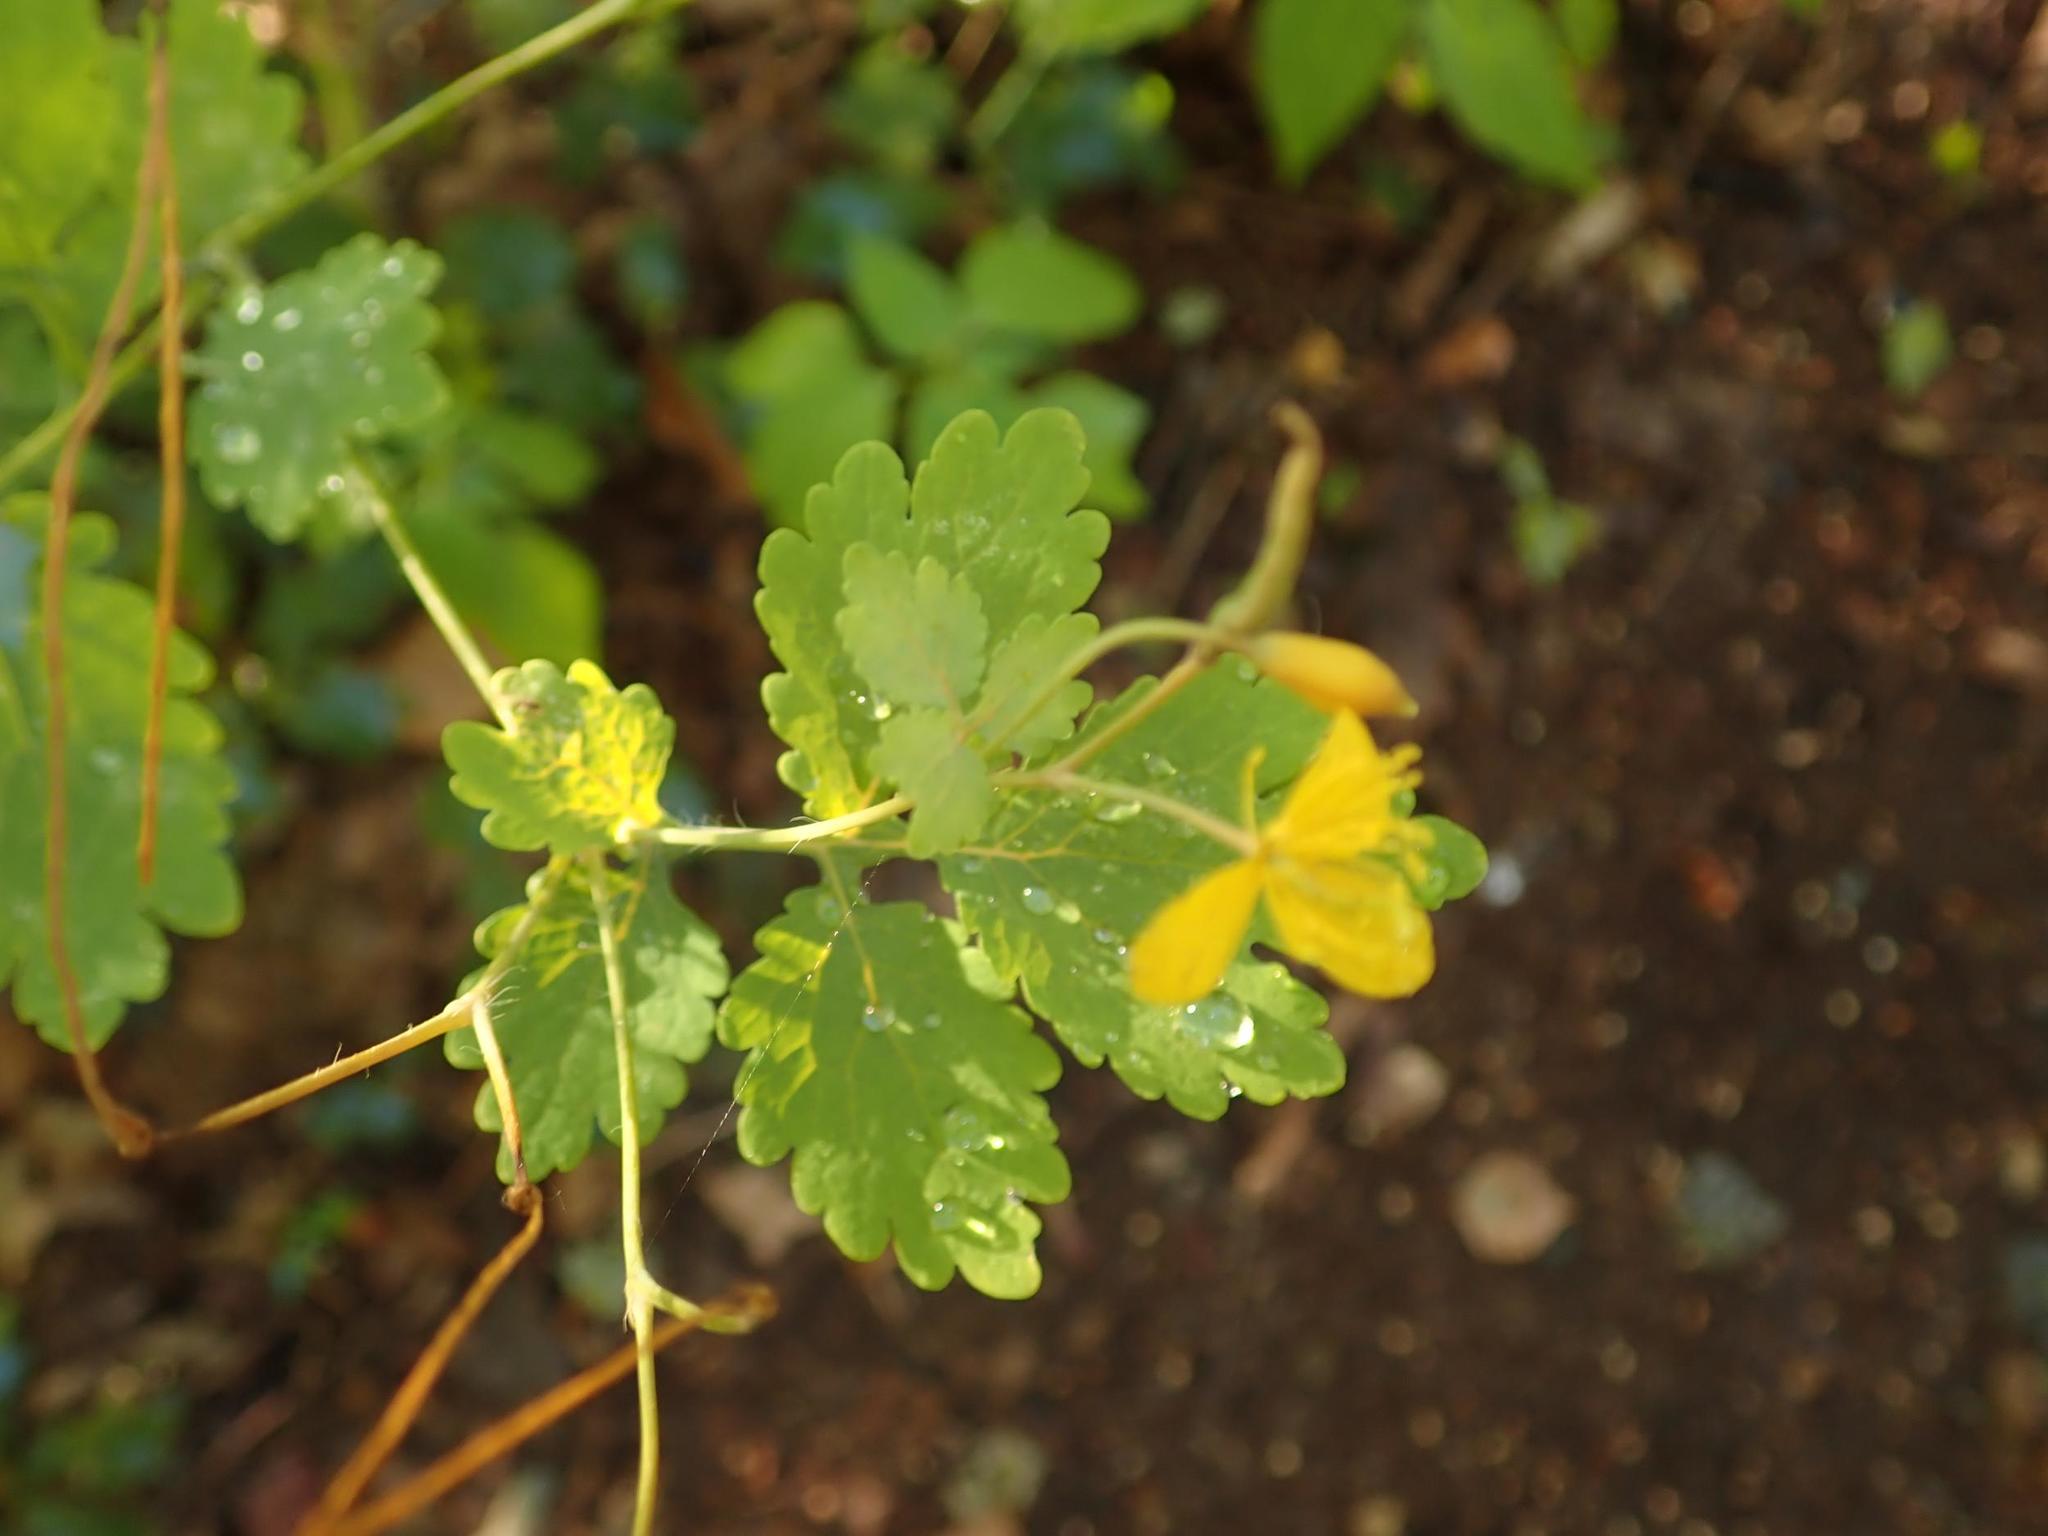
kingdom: Plantae
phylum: Tracheophyta
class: Magnoliopsida
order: Ranunculales
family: Papaveraceae
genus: Chelidonium
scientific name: Chelidonium majus
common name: Greater celandine
